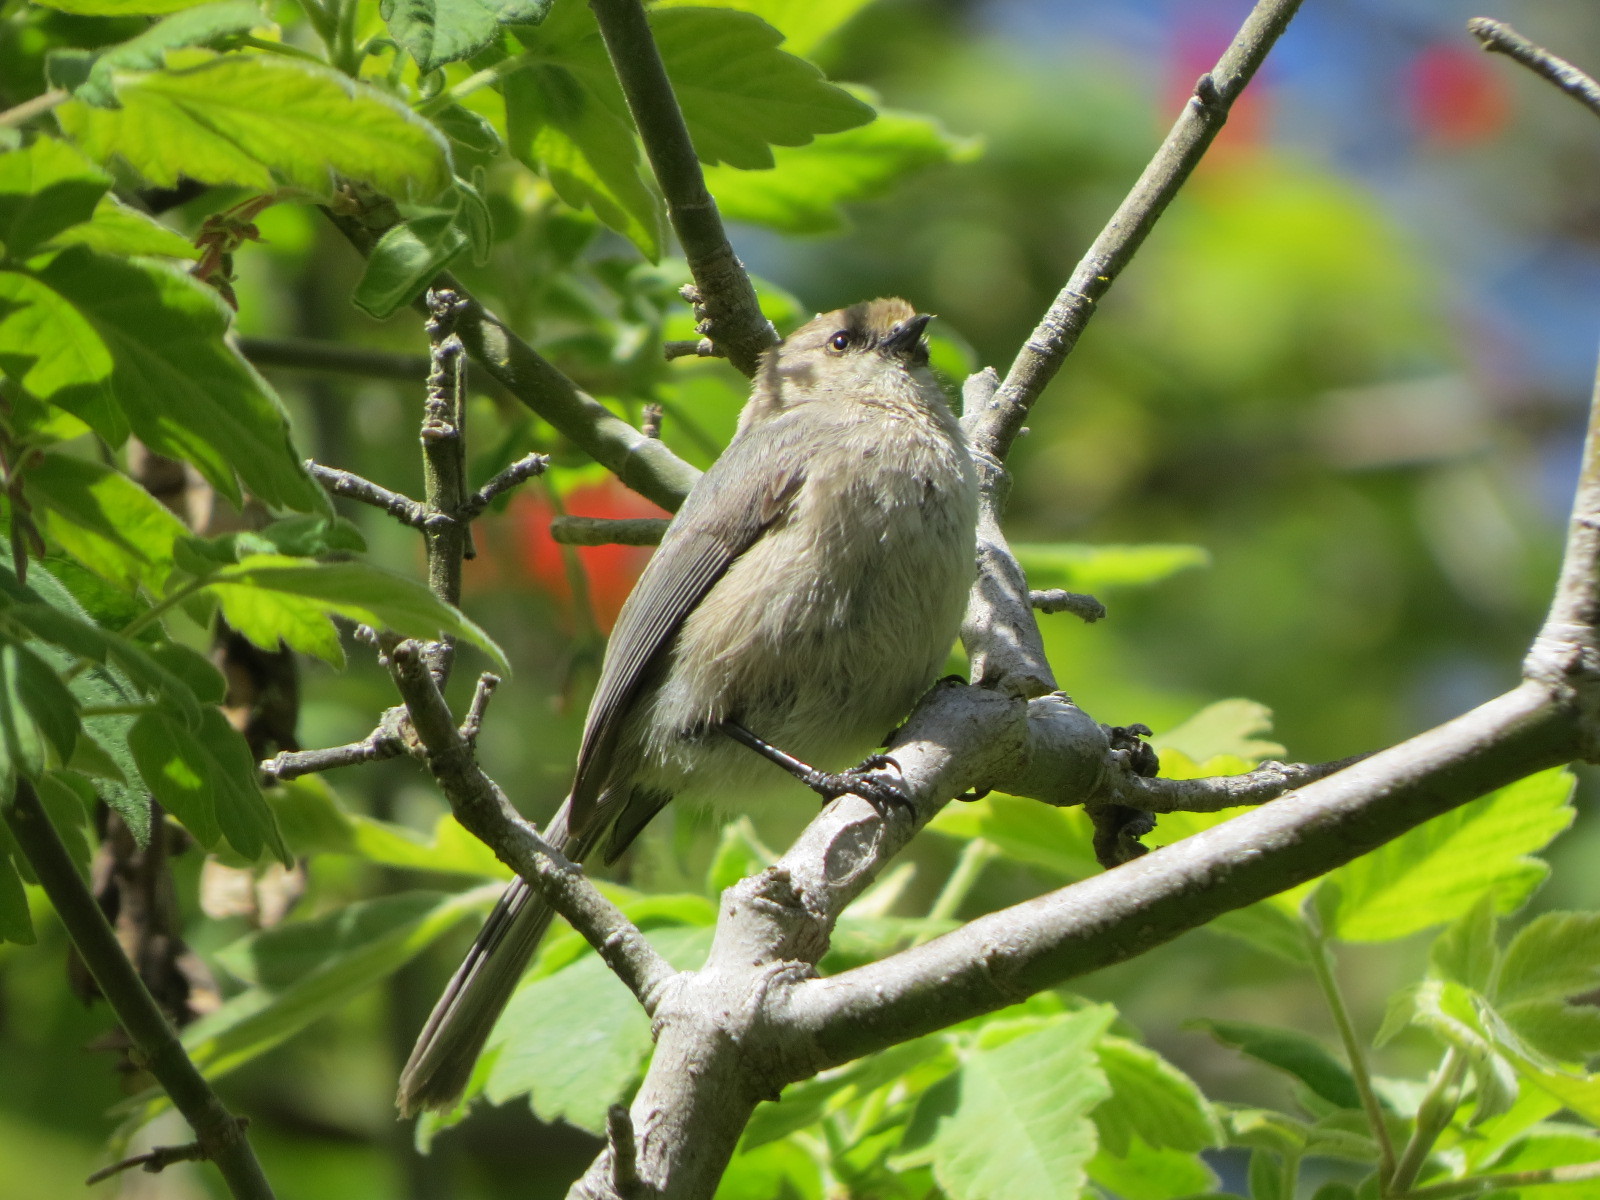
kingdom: Animalia
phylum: Chordata
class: Aves
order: Passeriformes
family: Aegithalidae
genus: Psaltriparus
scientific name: Psaltriparus minimus
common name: American bushtit
